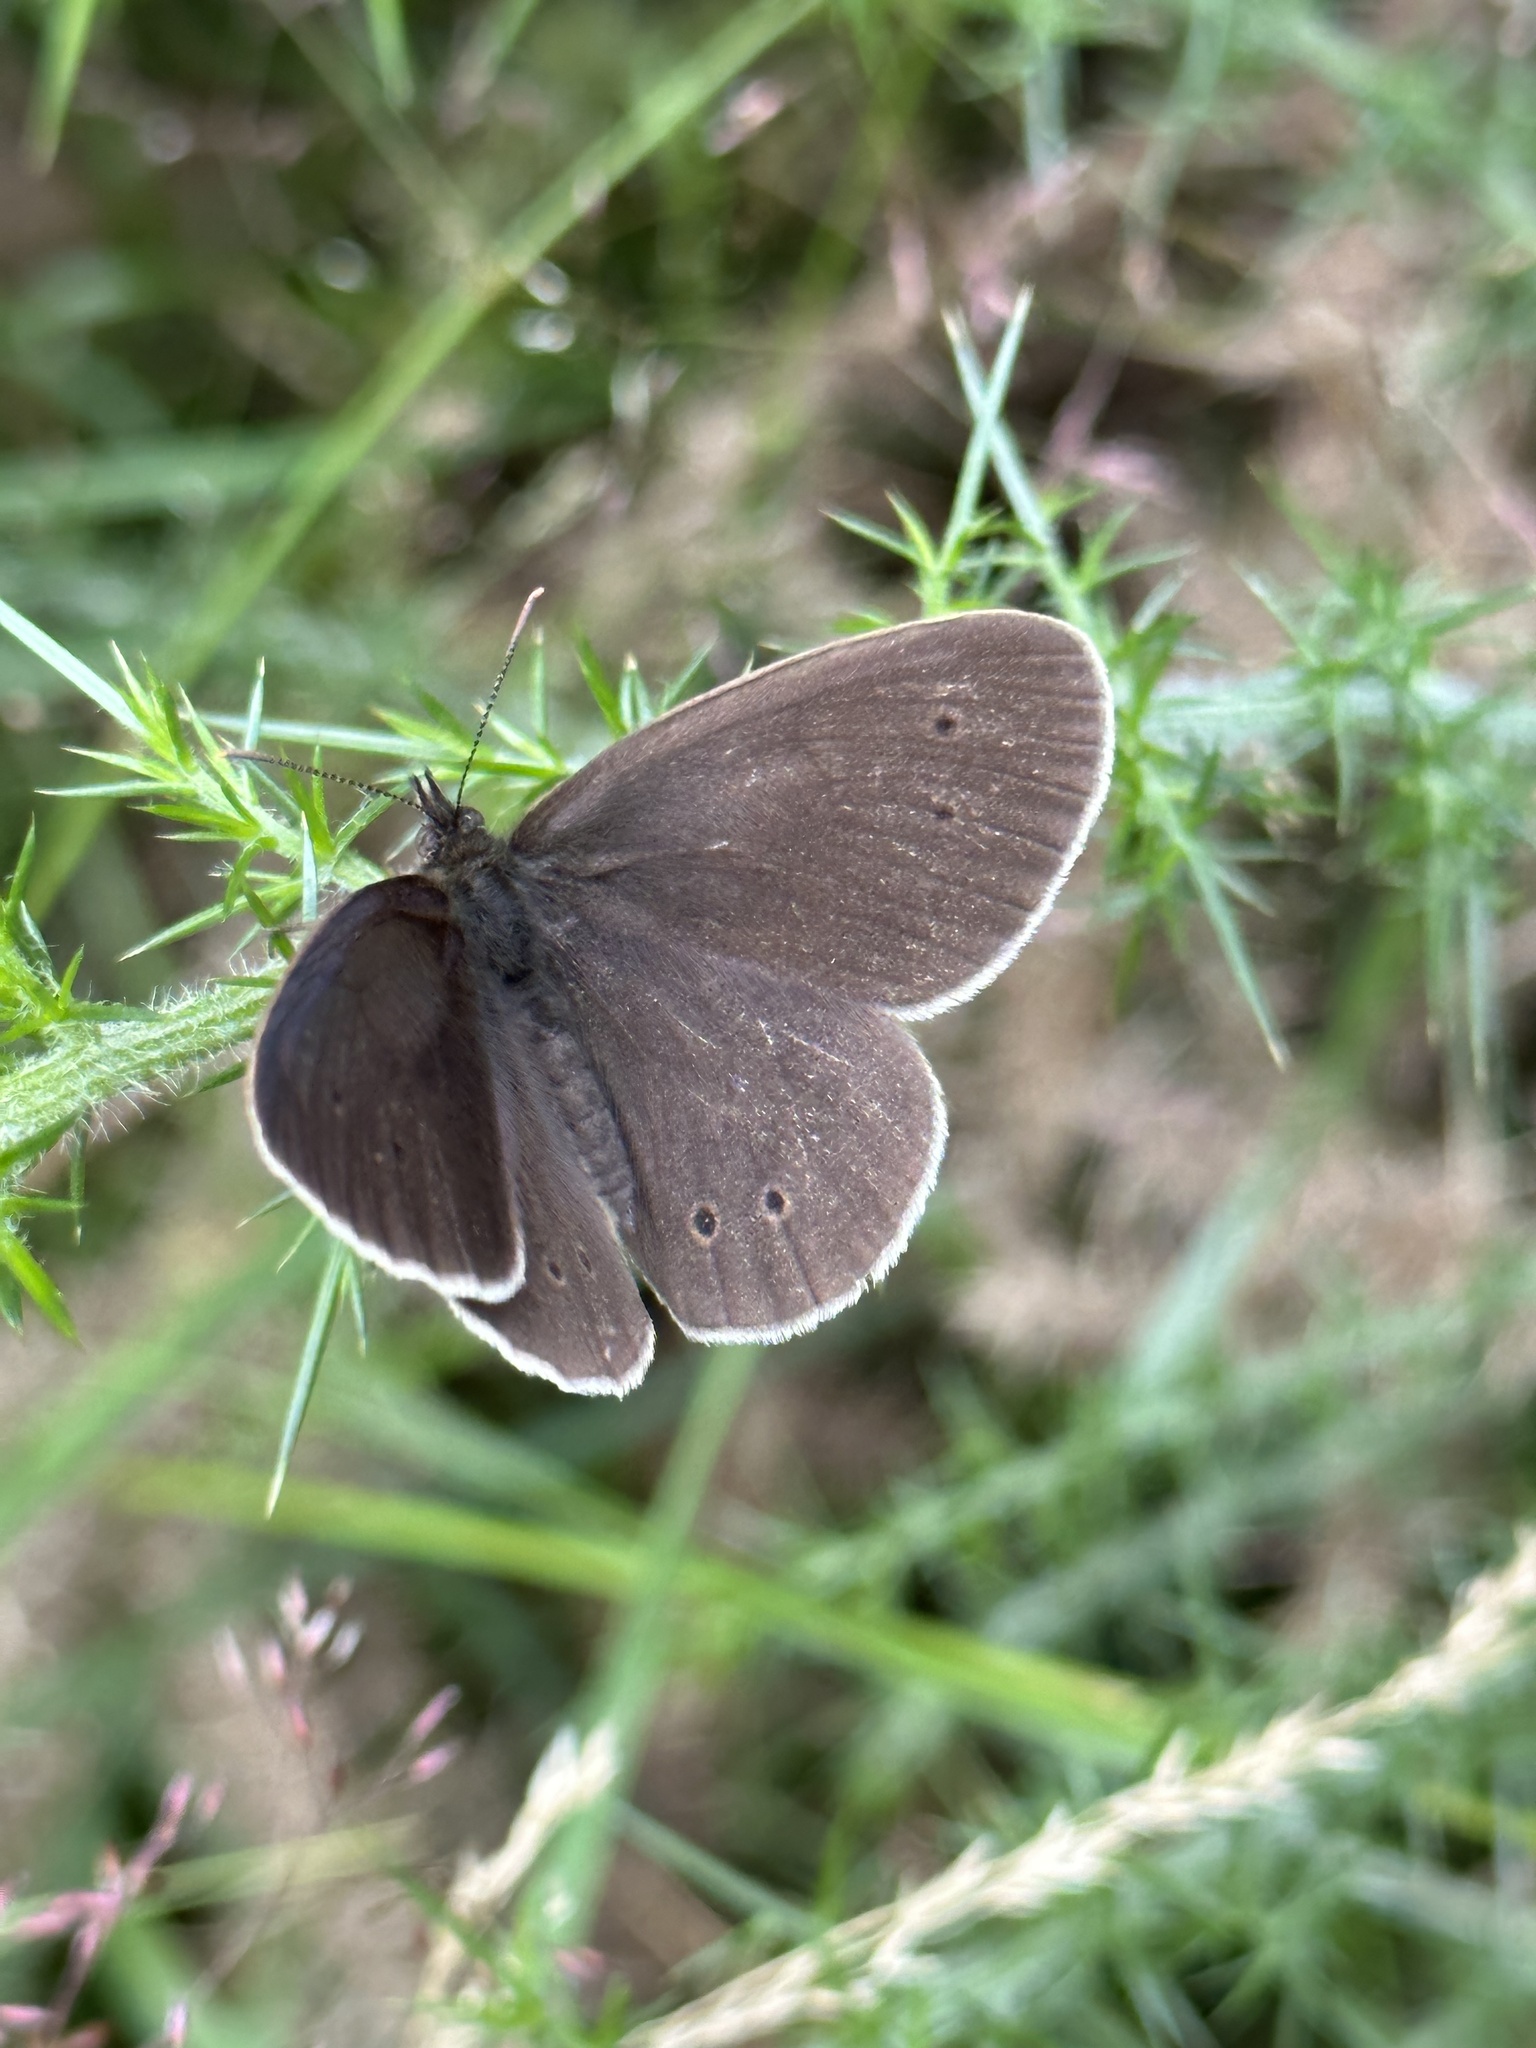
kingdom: Animalia
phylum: Arthropoda
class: Insecta
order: Lepidoptera
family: Nymphalidae
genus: Aphantopus
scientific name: Aphantopus hyperantus
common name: Ringlet
